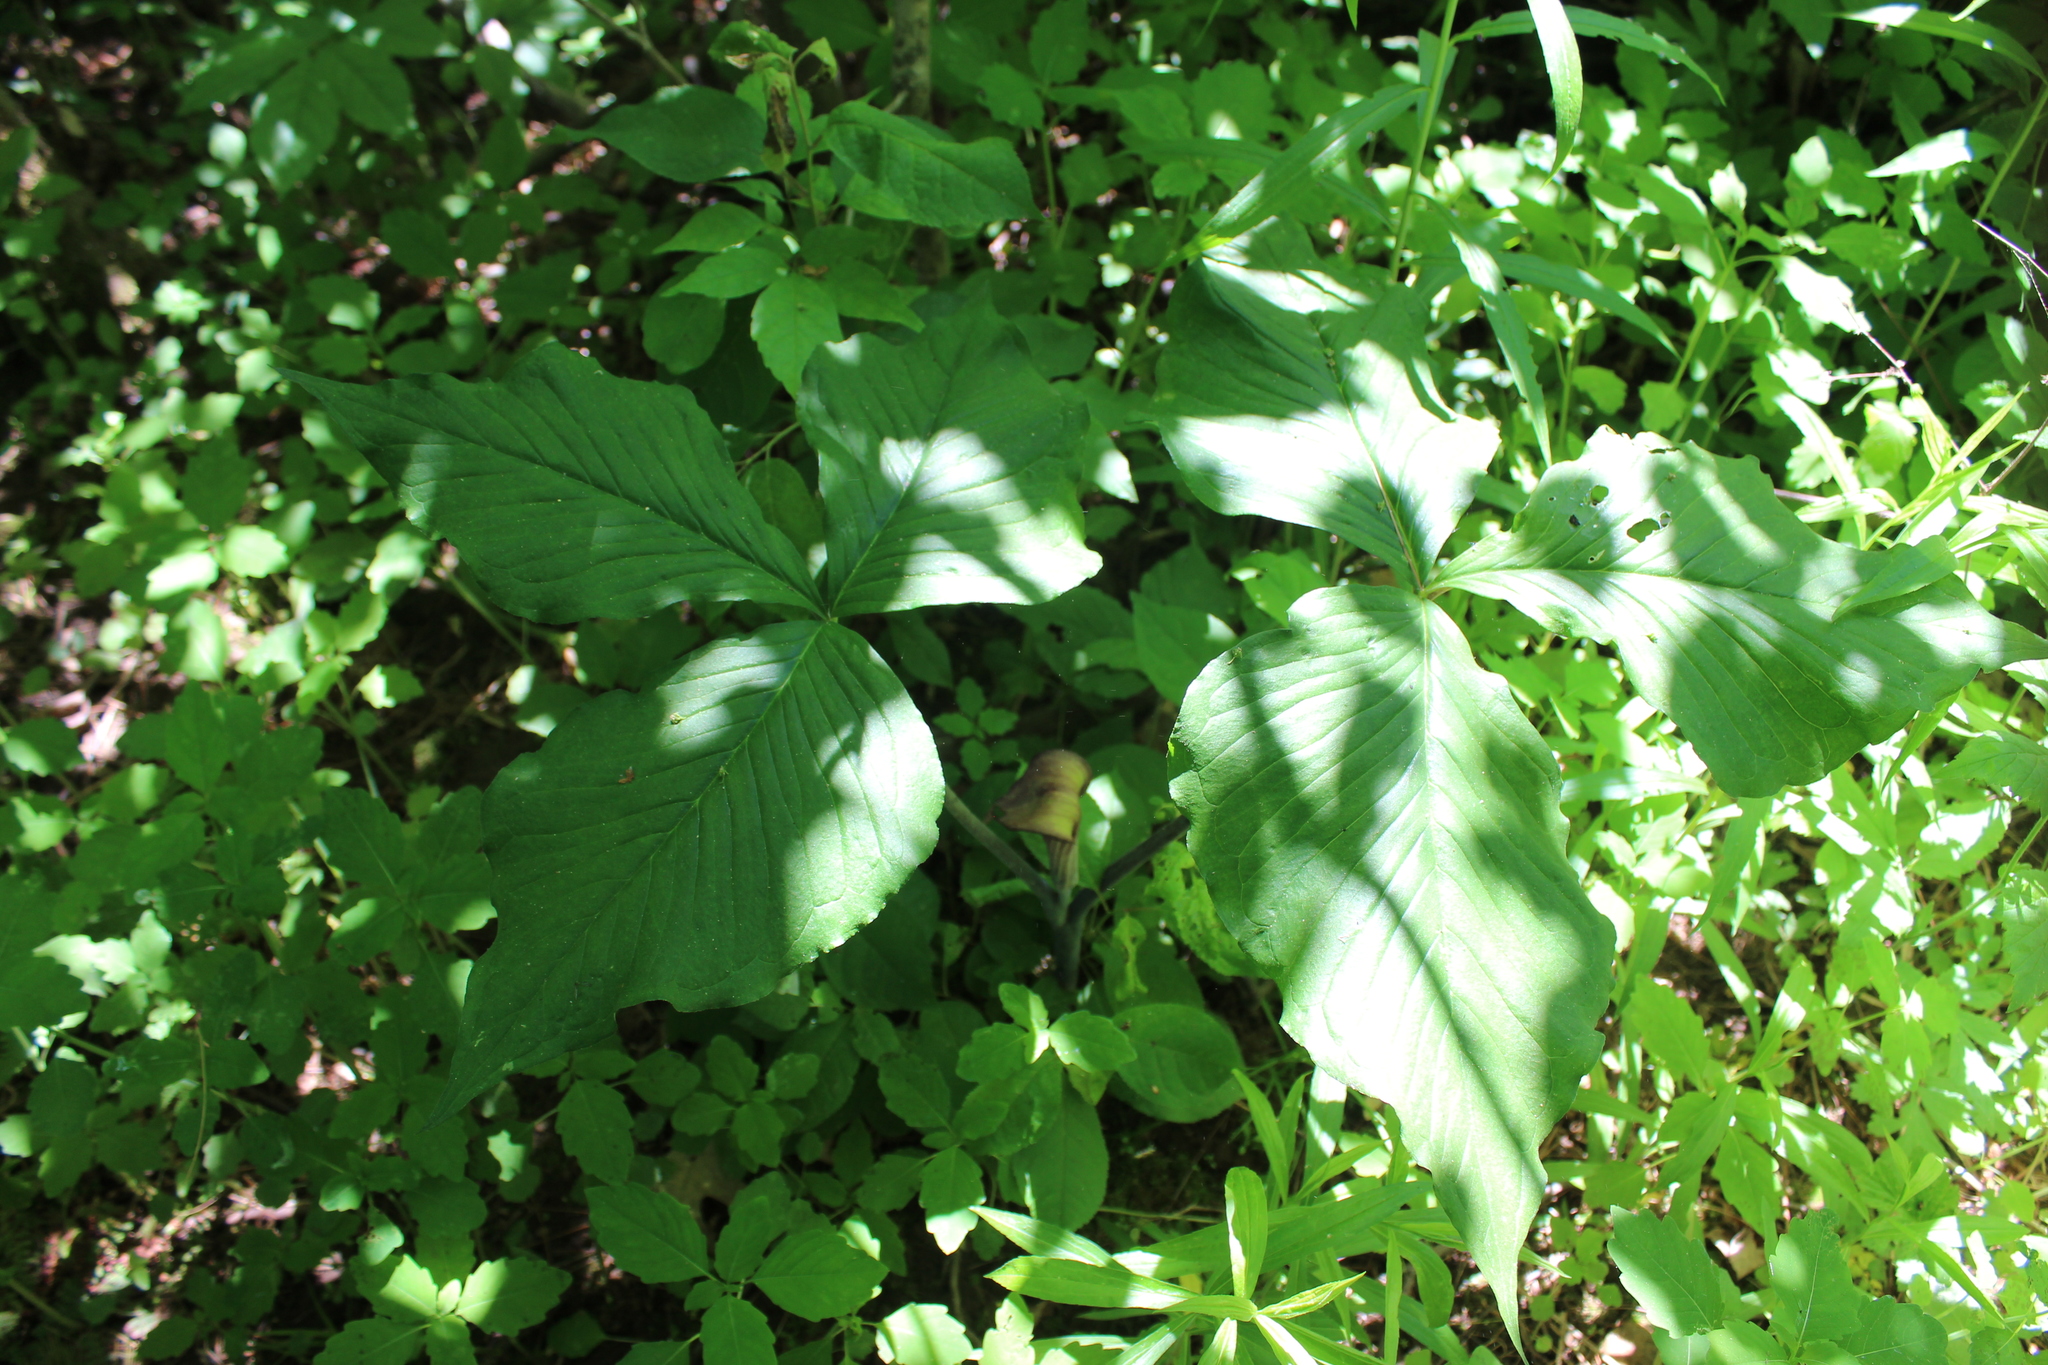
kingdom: Plantae
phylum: Tracheophyta
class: Liliopsida
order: Alismatales
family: Araceae
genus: Arisaema
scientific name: Arisaema triphyllum
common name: Jack-in-the-pulpit
